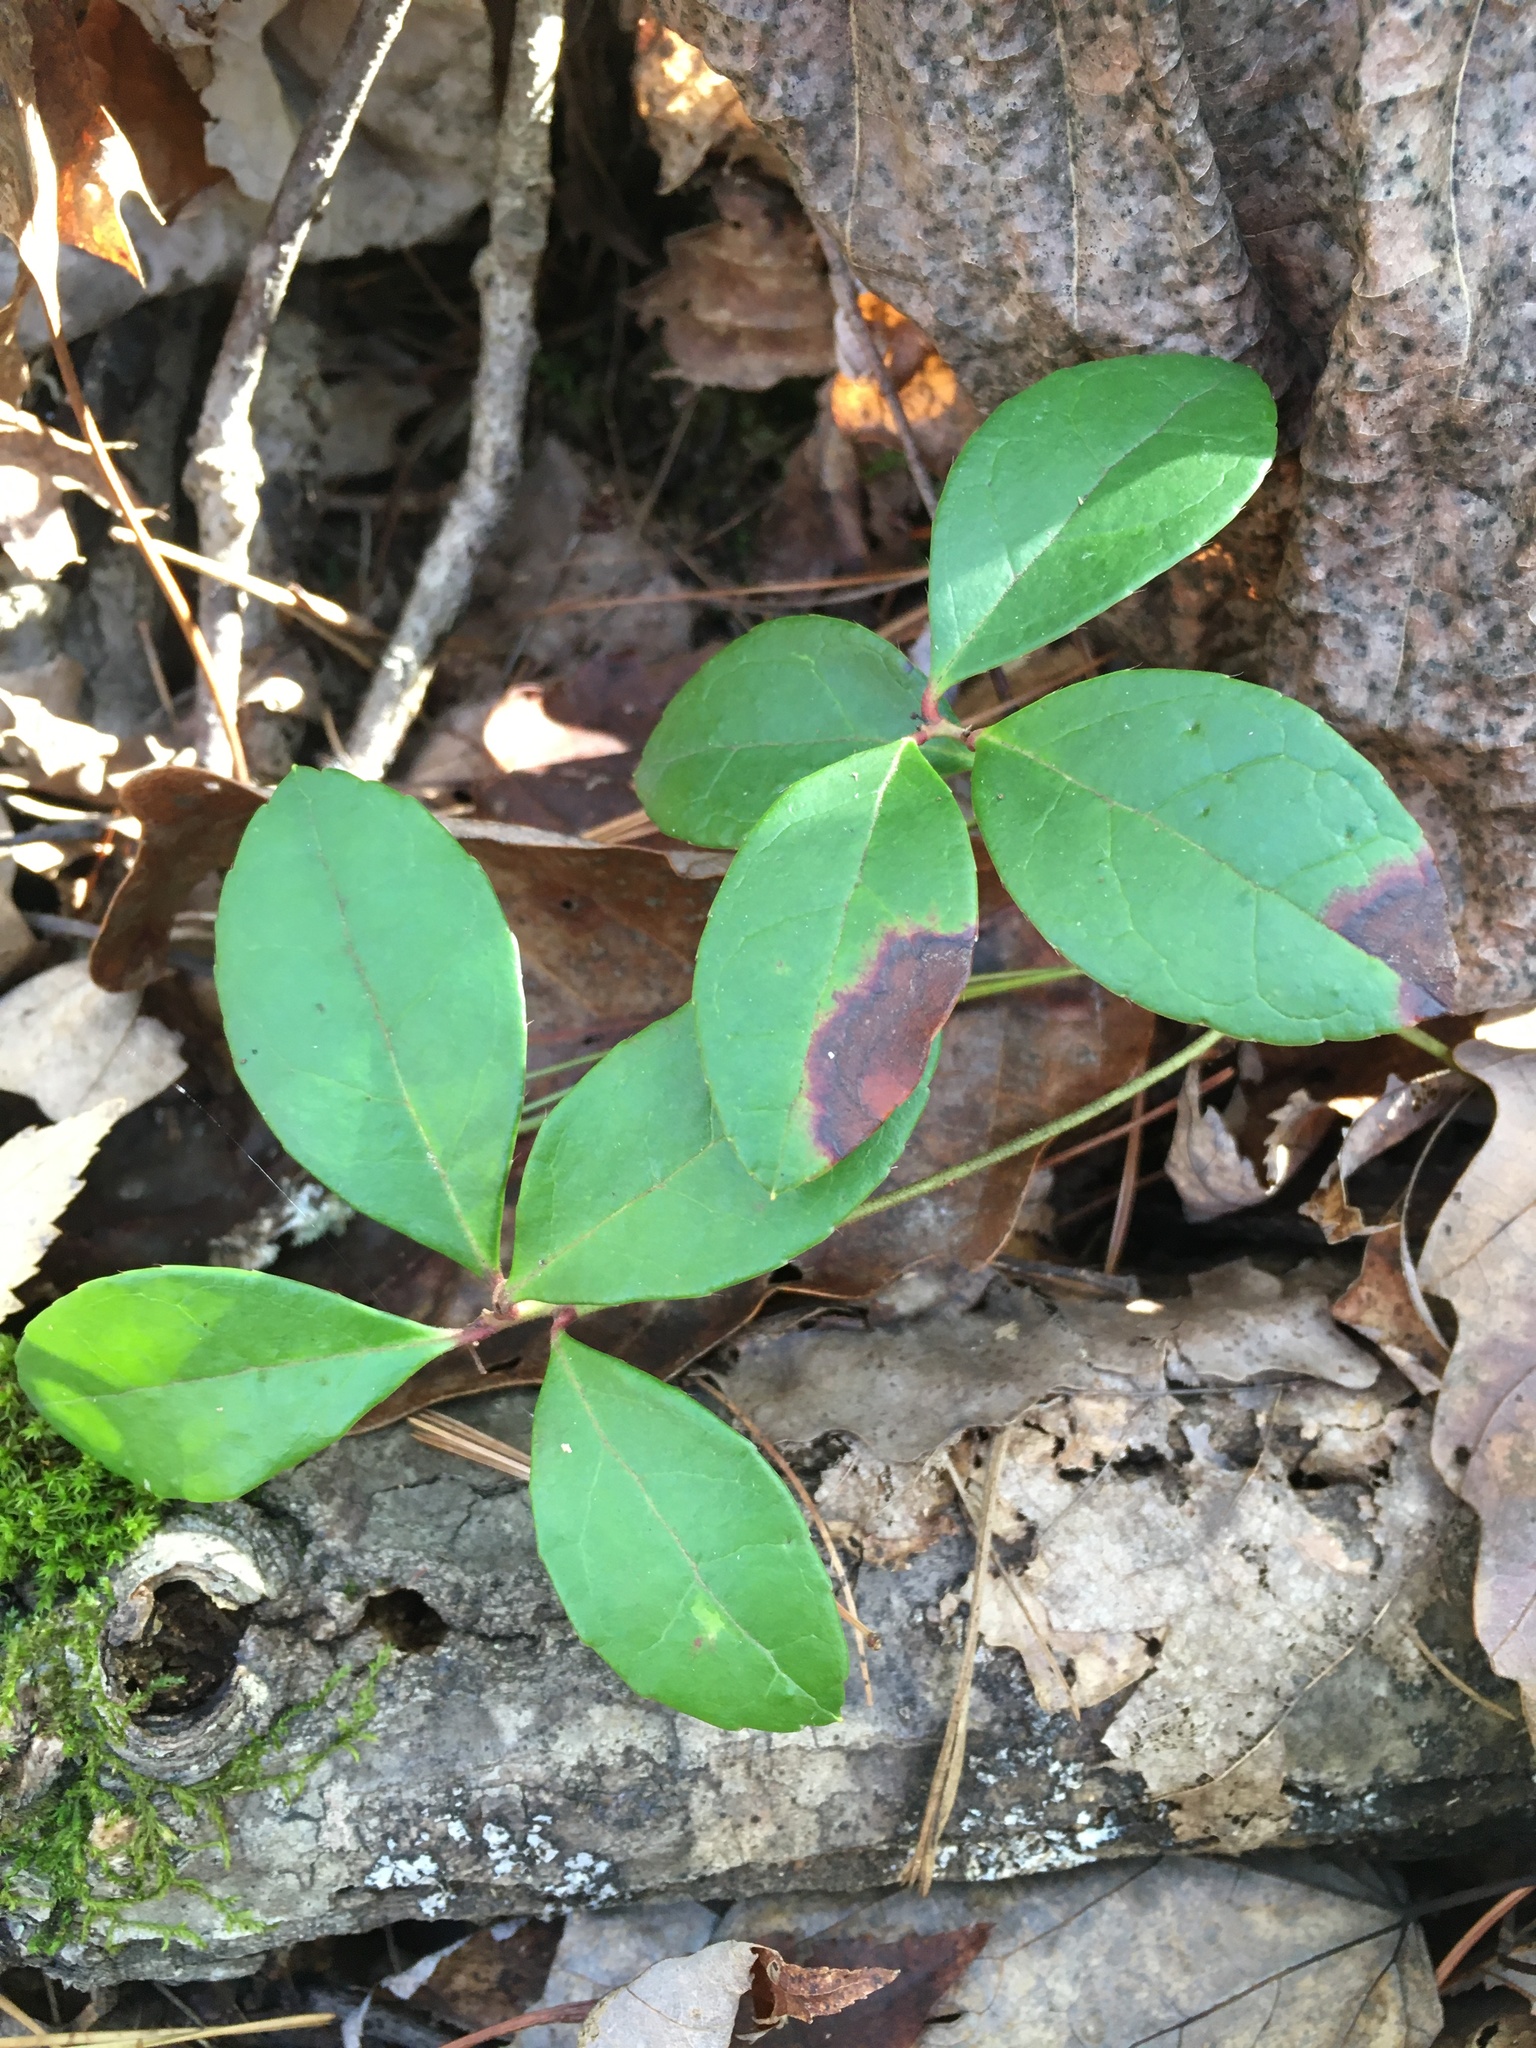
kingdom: Plantae
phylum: Tracheophyta
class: Magnoliopsida
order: Ericales
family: Ericaceae
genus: Gaultheria
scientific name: Gaultheria procumbens
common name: Checkerberry
